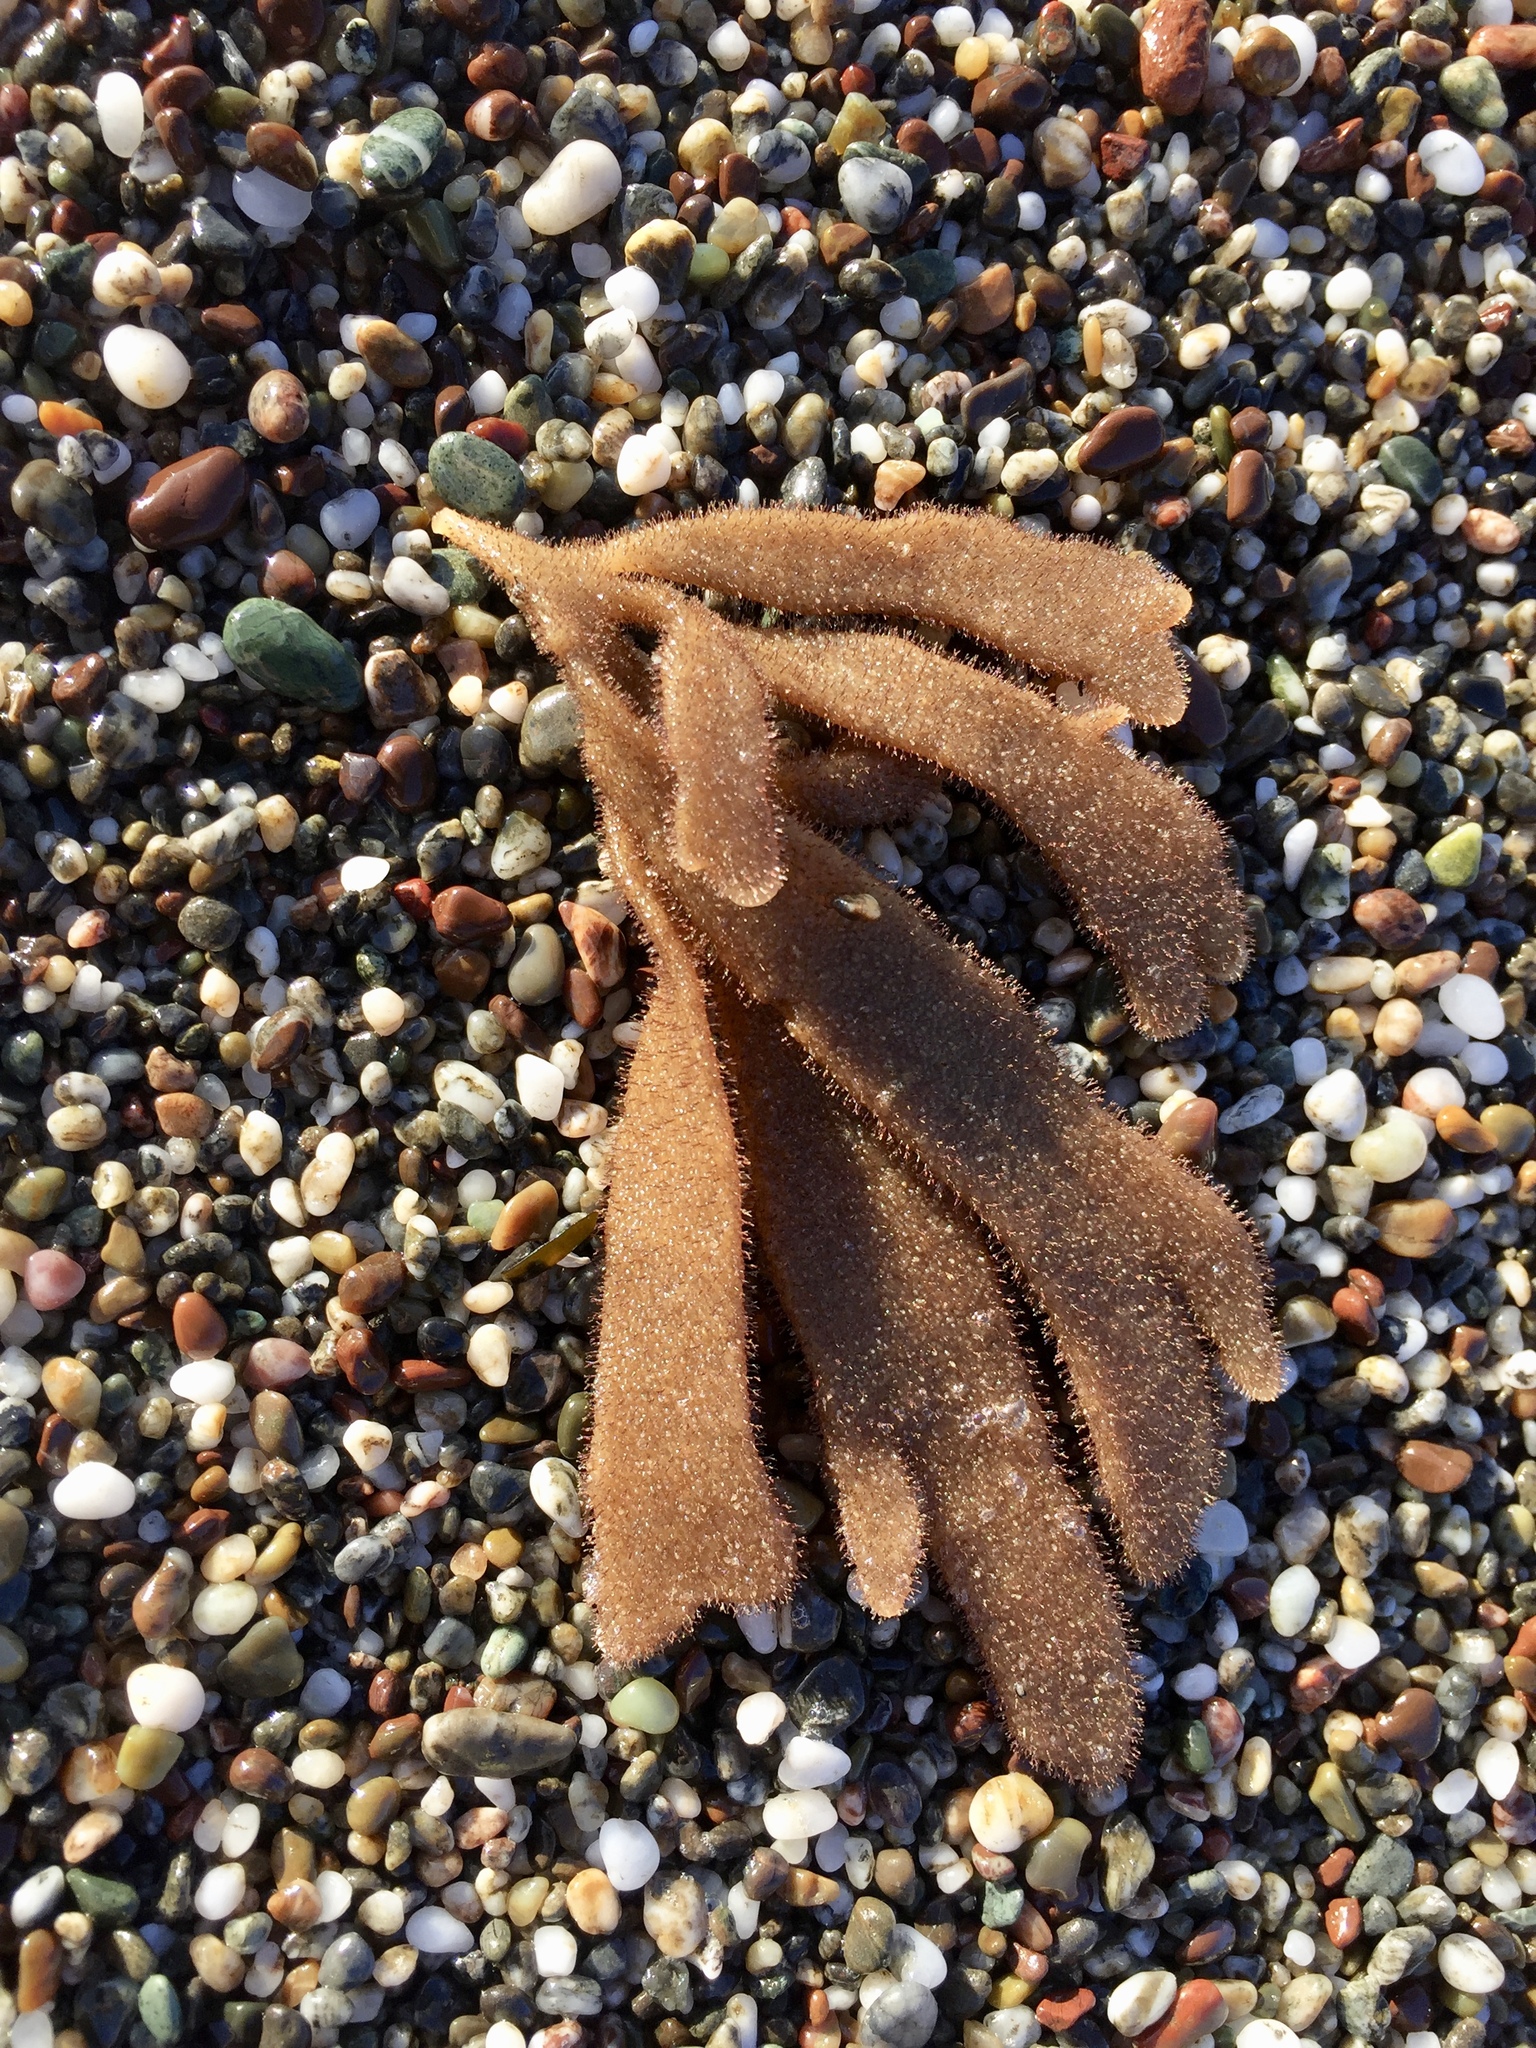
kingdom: Animalia
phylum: Bryozoa
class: Gymnolaemata
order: Ctenostomatida
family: Flustrellidridae
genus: Flustrellidra
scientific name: Flustrellidra corniculata
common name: Spiny leather bryozoan
